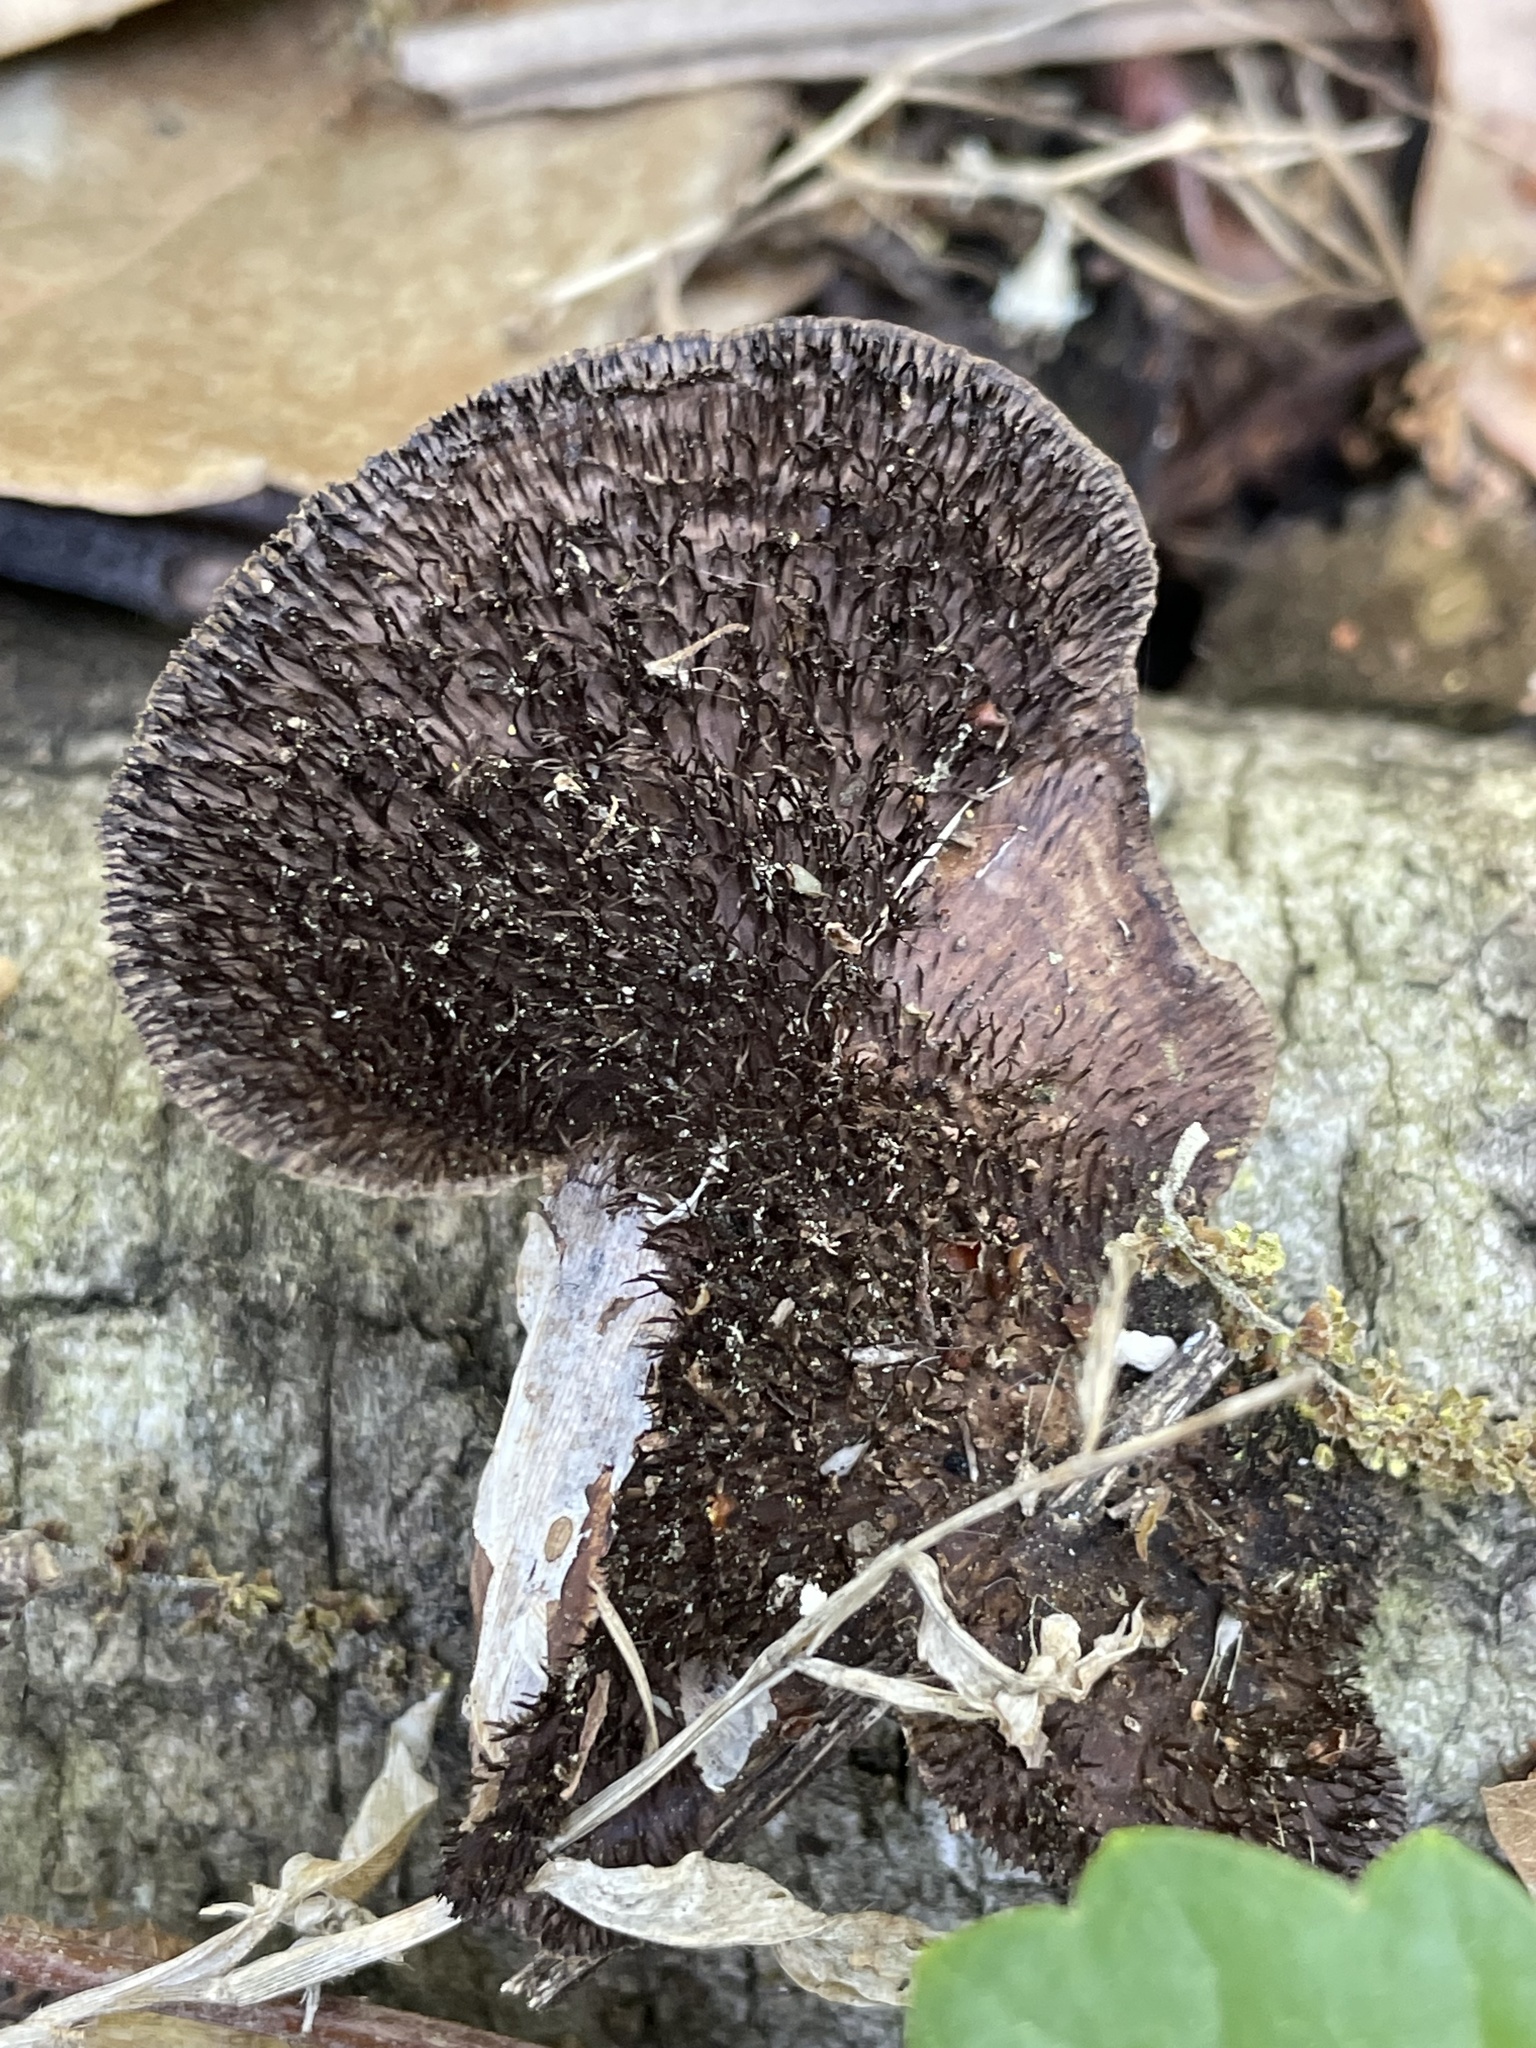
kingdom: Fungi
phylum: Basidiomycota
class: Agaricomycetes
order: Polyporales
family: Cerrenaceae
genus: Cerrena
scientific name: Cerrena hydnoides
